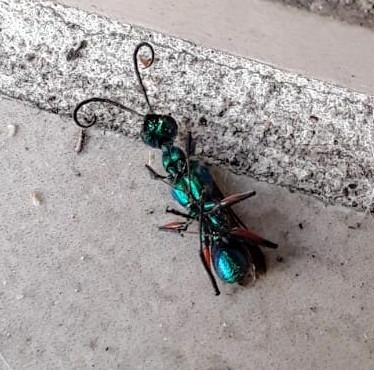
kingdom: Animalia
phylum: Arthropoda
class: Insecta
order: Hymenoptera
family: Ampulicidae
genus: Ampulex
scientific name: Ampulex compressa
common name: Emerald cockroach wasp
